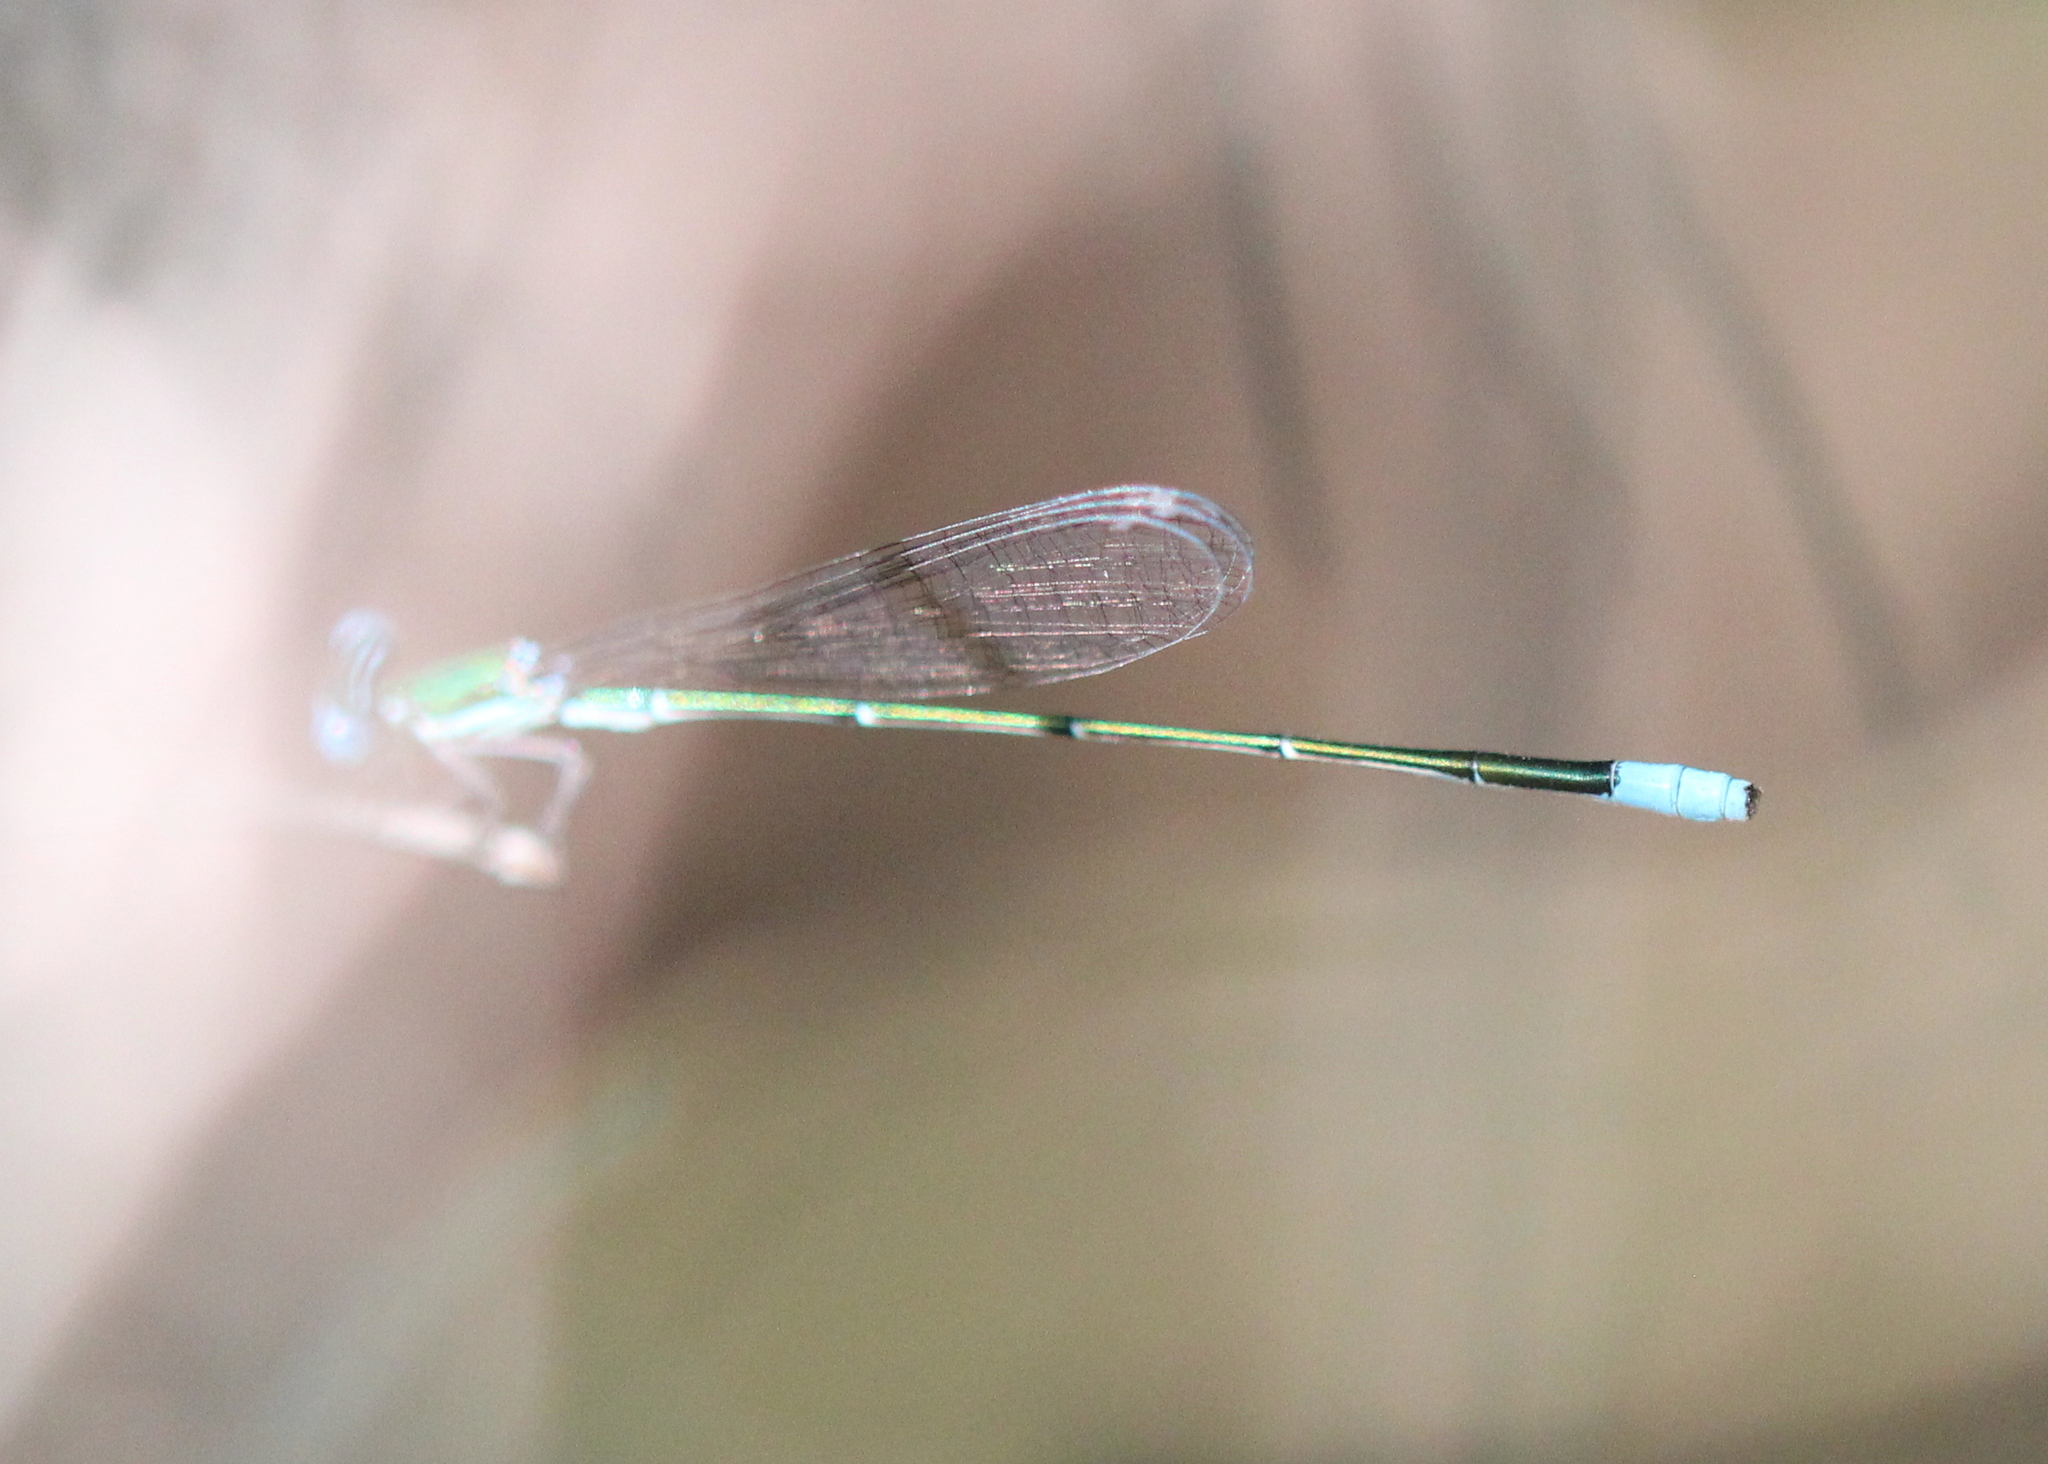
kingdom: Animalia
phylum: Arthropoda
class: Insecta
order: Odonata
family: Coenagrionidae
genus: Nehalennia
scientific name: Nehalennia gracilis
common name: Sphagnum sprite
